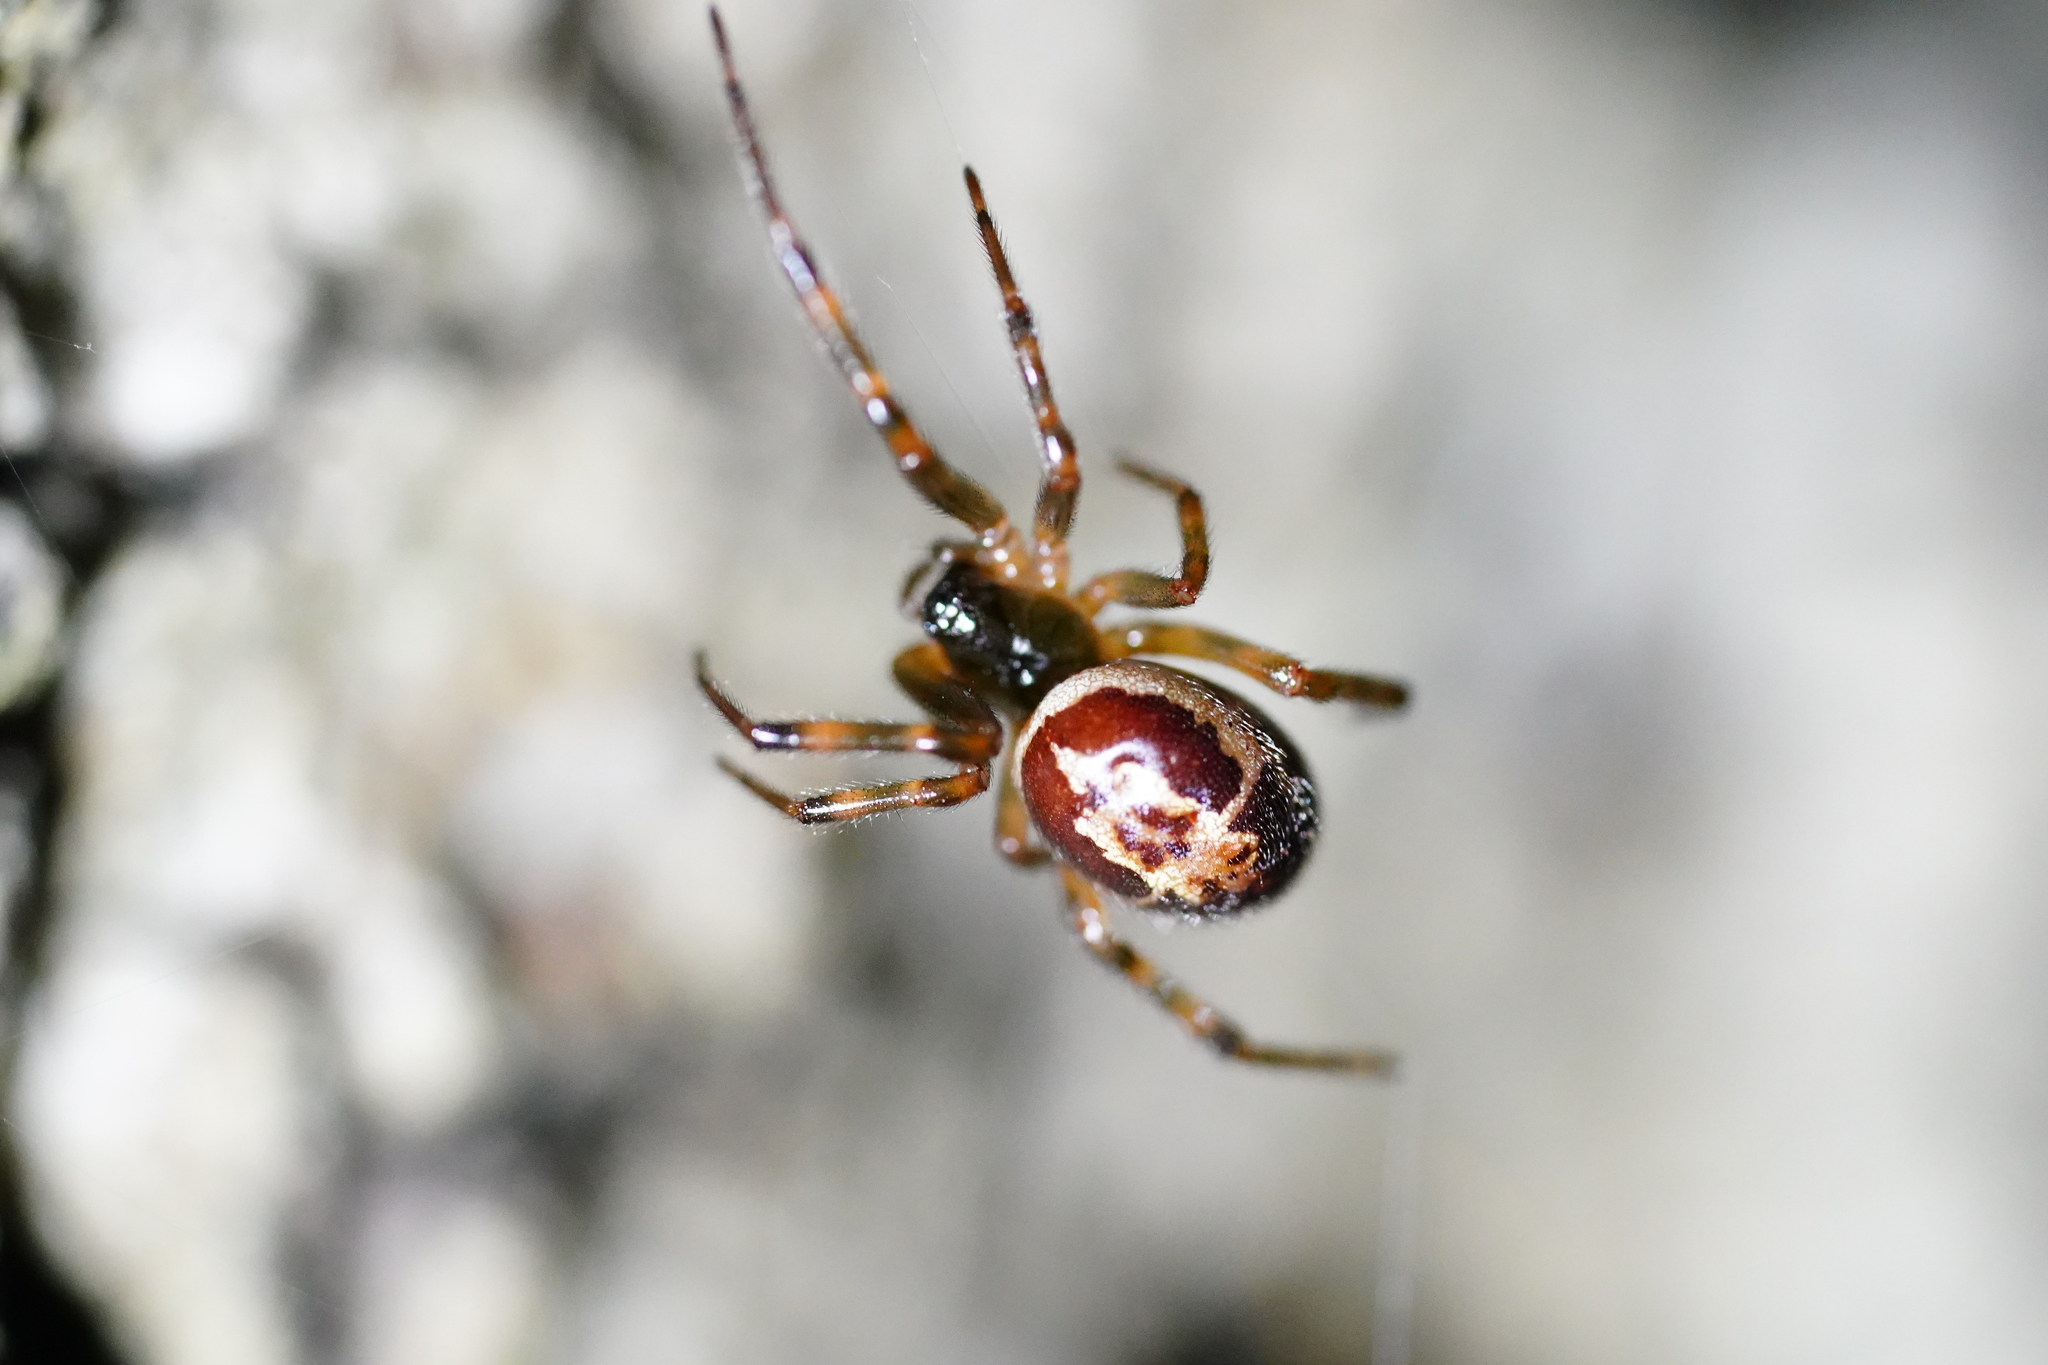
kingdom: Animalia
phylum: Arthropoda
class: Arachnida
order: Araneae
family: Theridiidae
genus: Steatoda
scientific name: Steatoda nobilis
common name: Cobweb weaver
